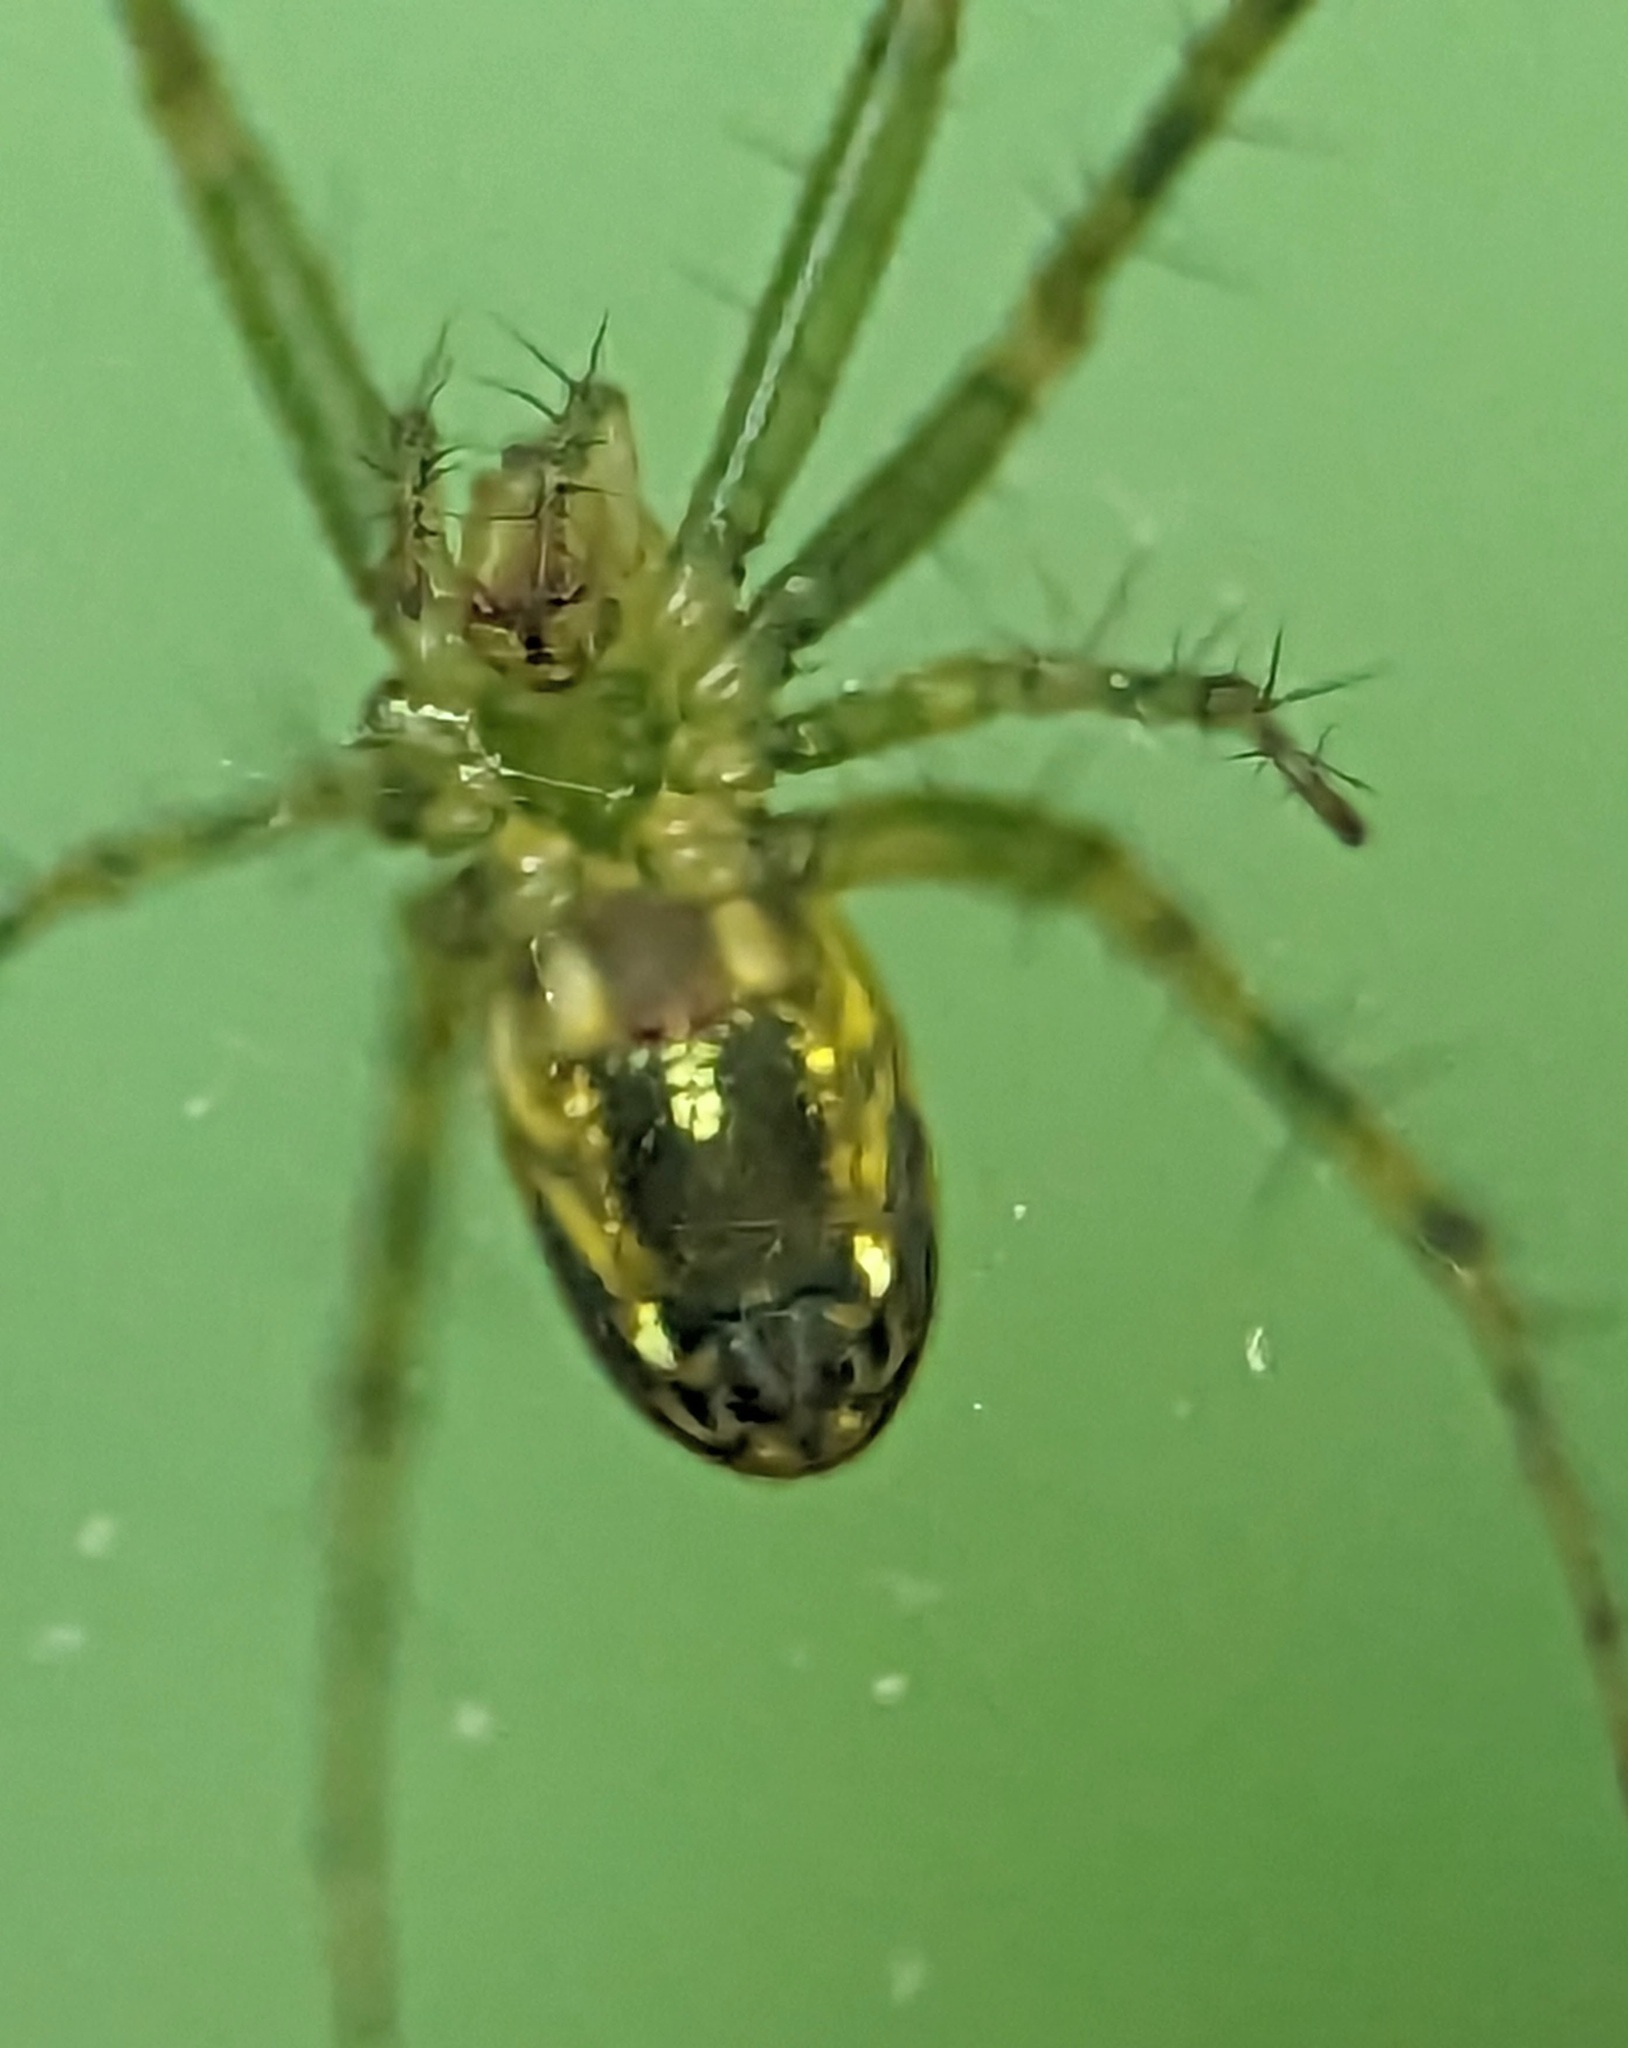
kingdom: Animalia
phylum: Arthropoda
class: Arachnida
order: Araneae
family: Araneidae
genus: Mangora
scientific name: Mangora gibberosa
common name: Lined orbweaver
